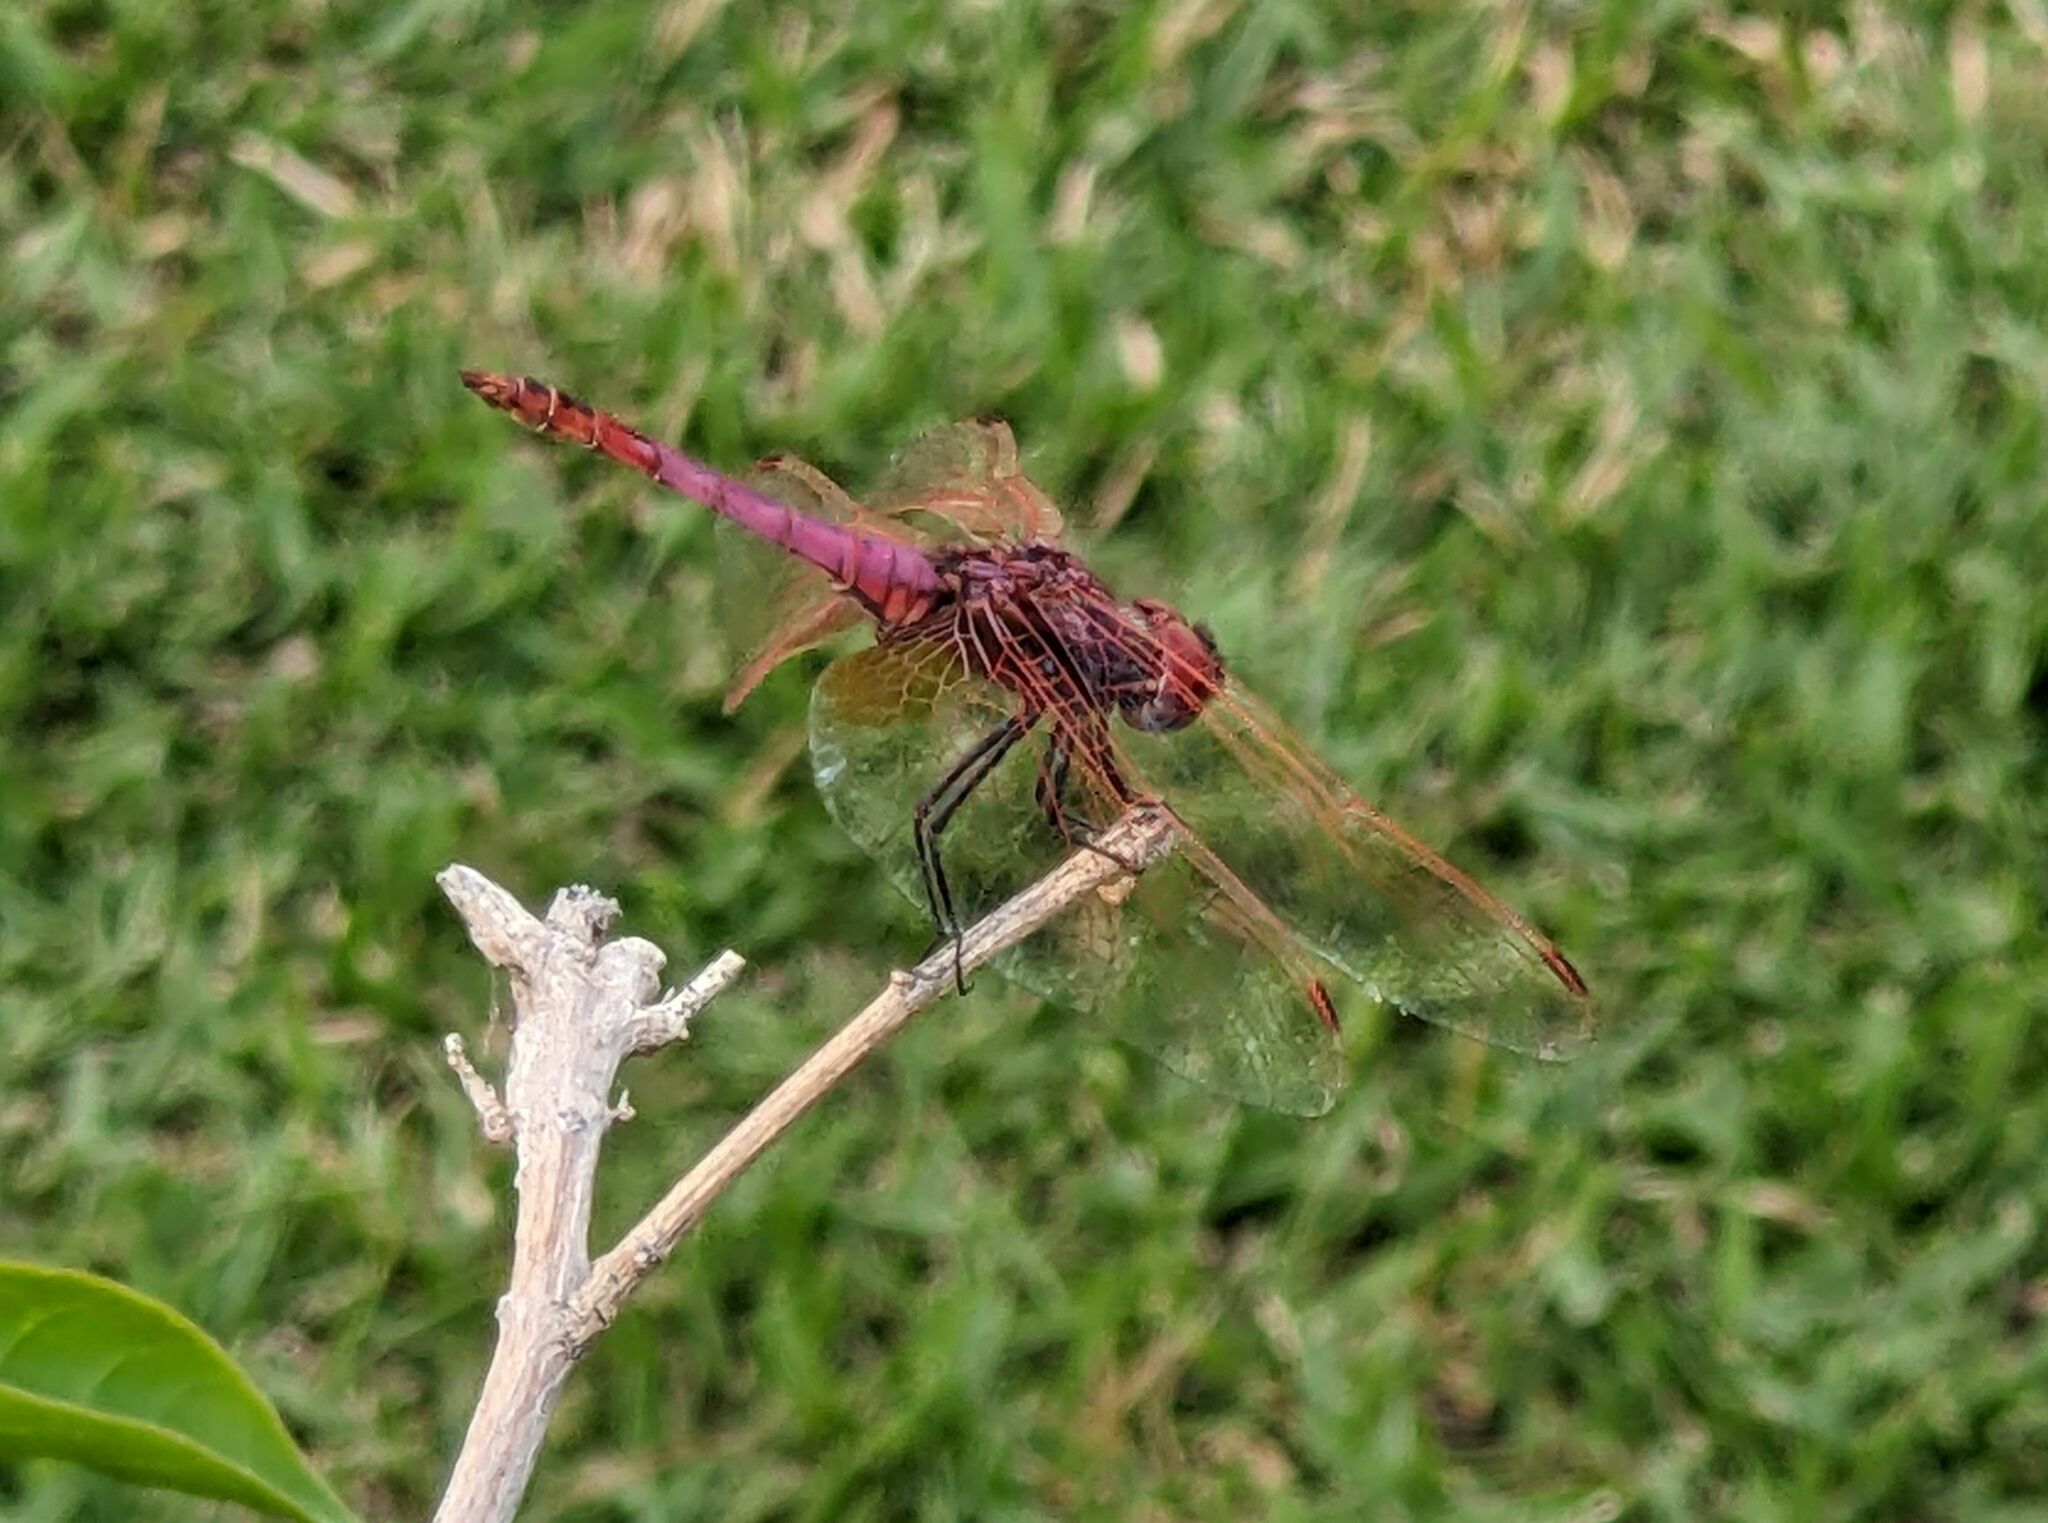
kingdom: Animalia
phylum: Arthropoda
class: Insecta
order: Odonata
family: Libellulidae
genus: Trithemis
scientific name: Trithemis annulata
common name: Violet dropwing
